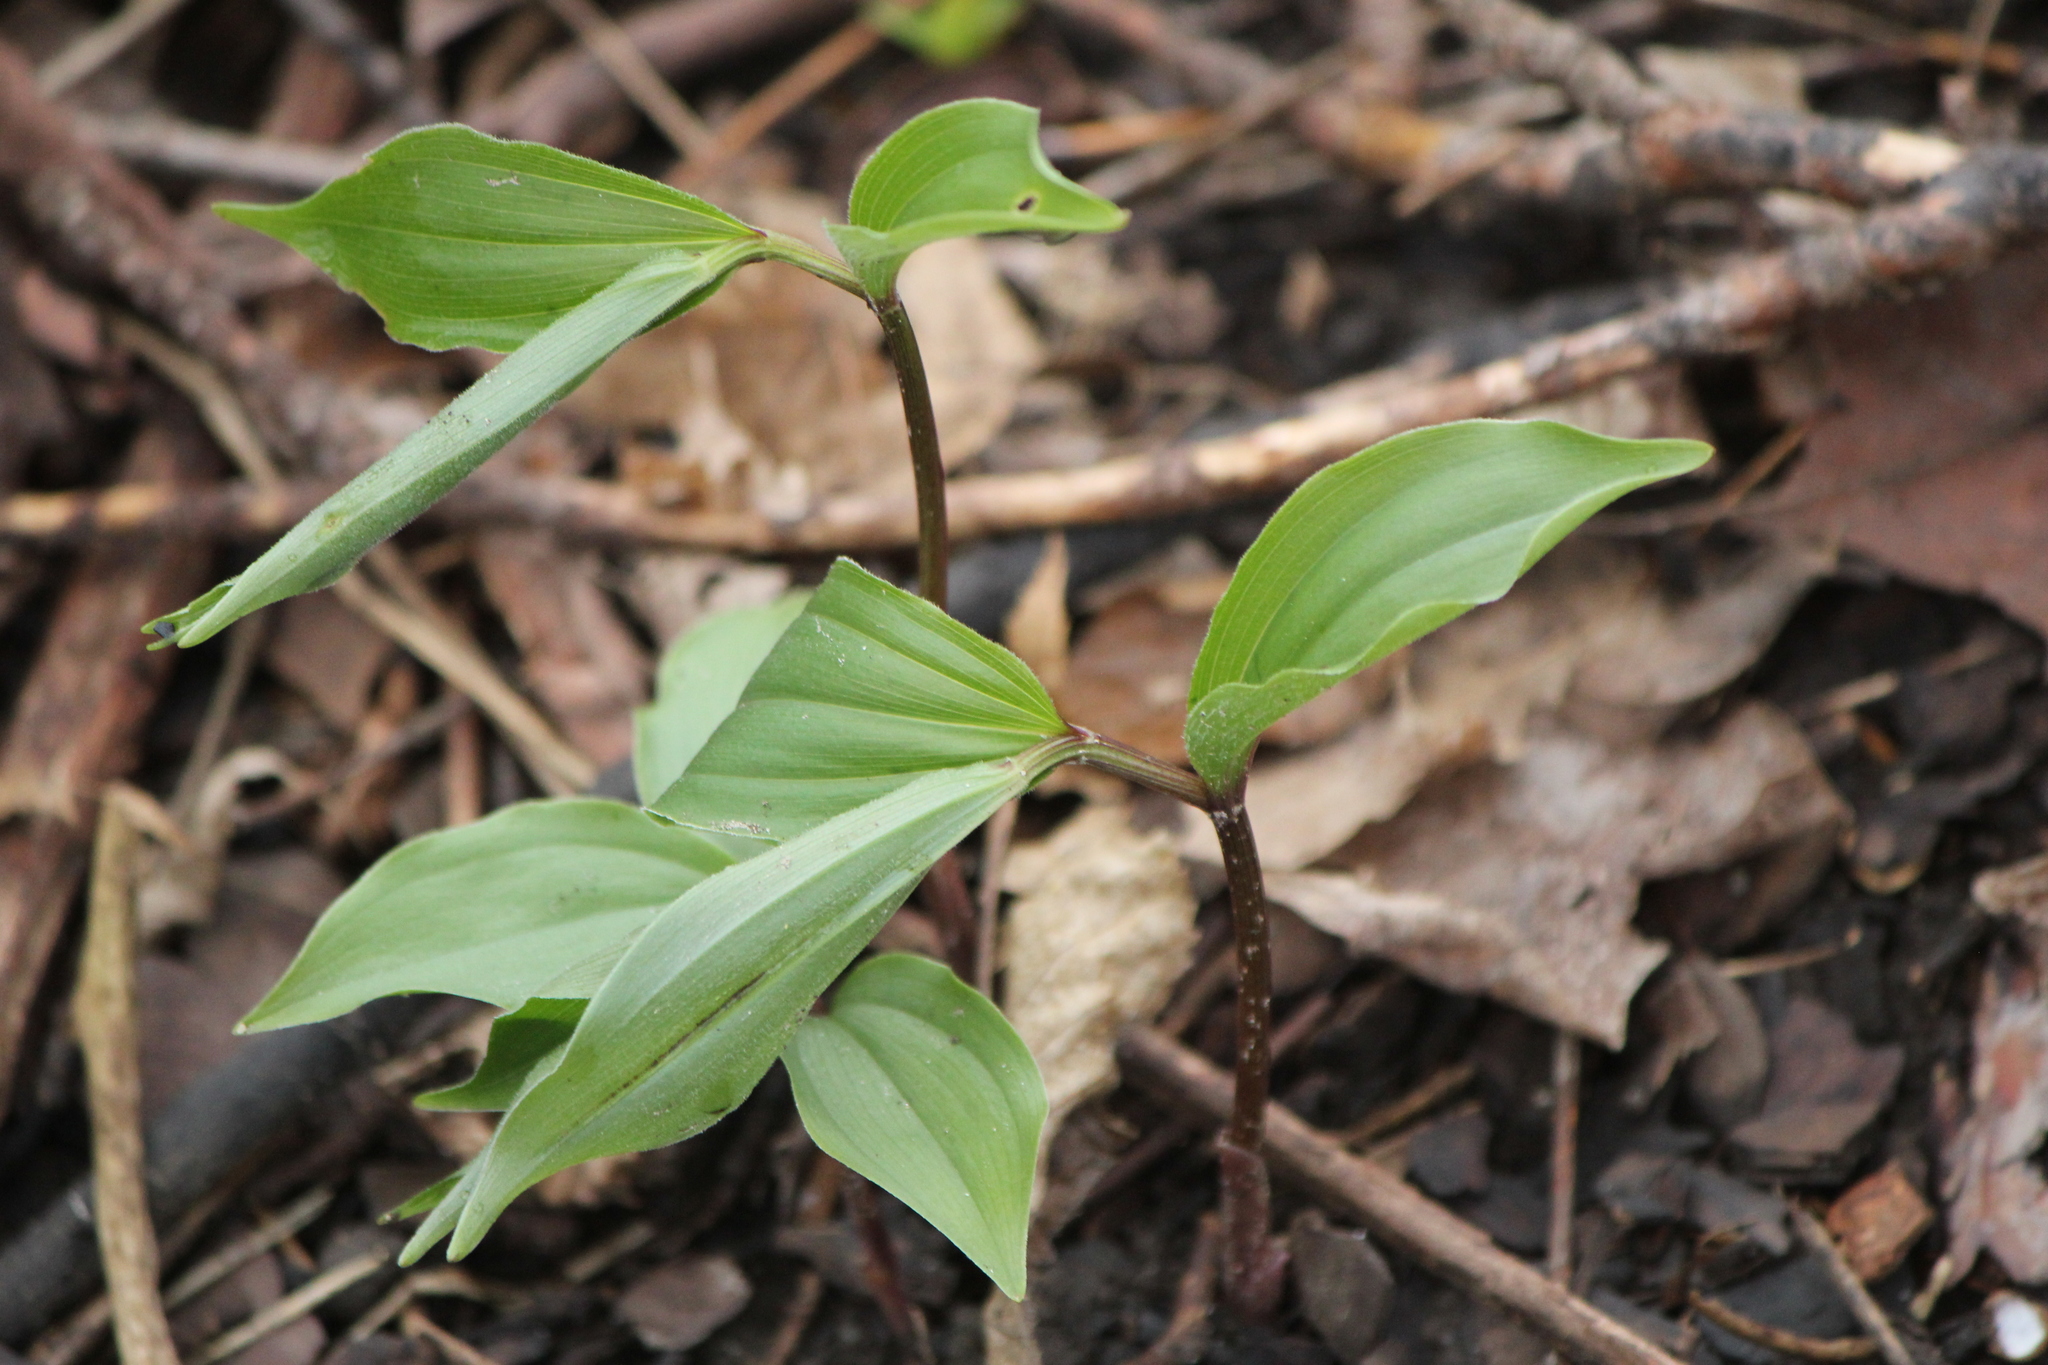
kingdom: Plantae
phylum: Tracheophyta
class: Liliopsida
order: Asparagales
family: Asparagaceae
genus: Maianthemum
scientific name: Maianthemum racemosum
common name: False spikenard
